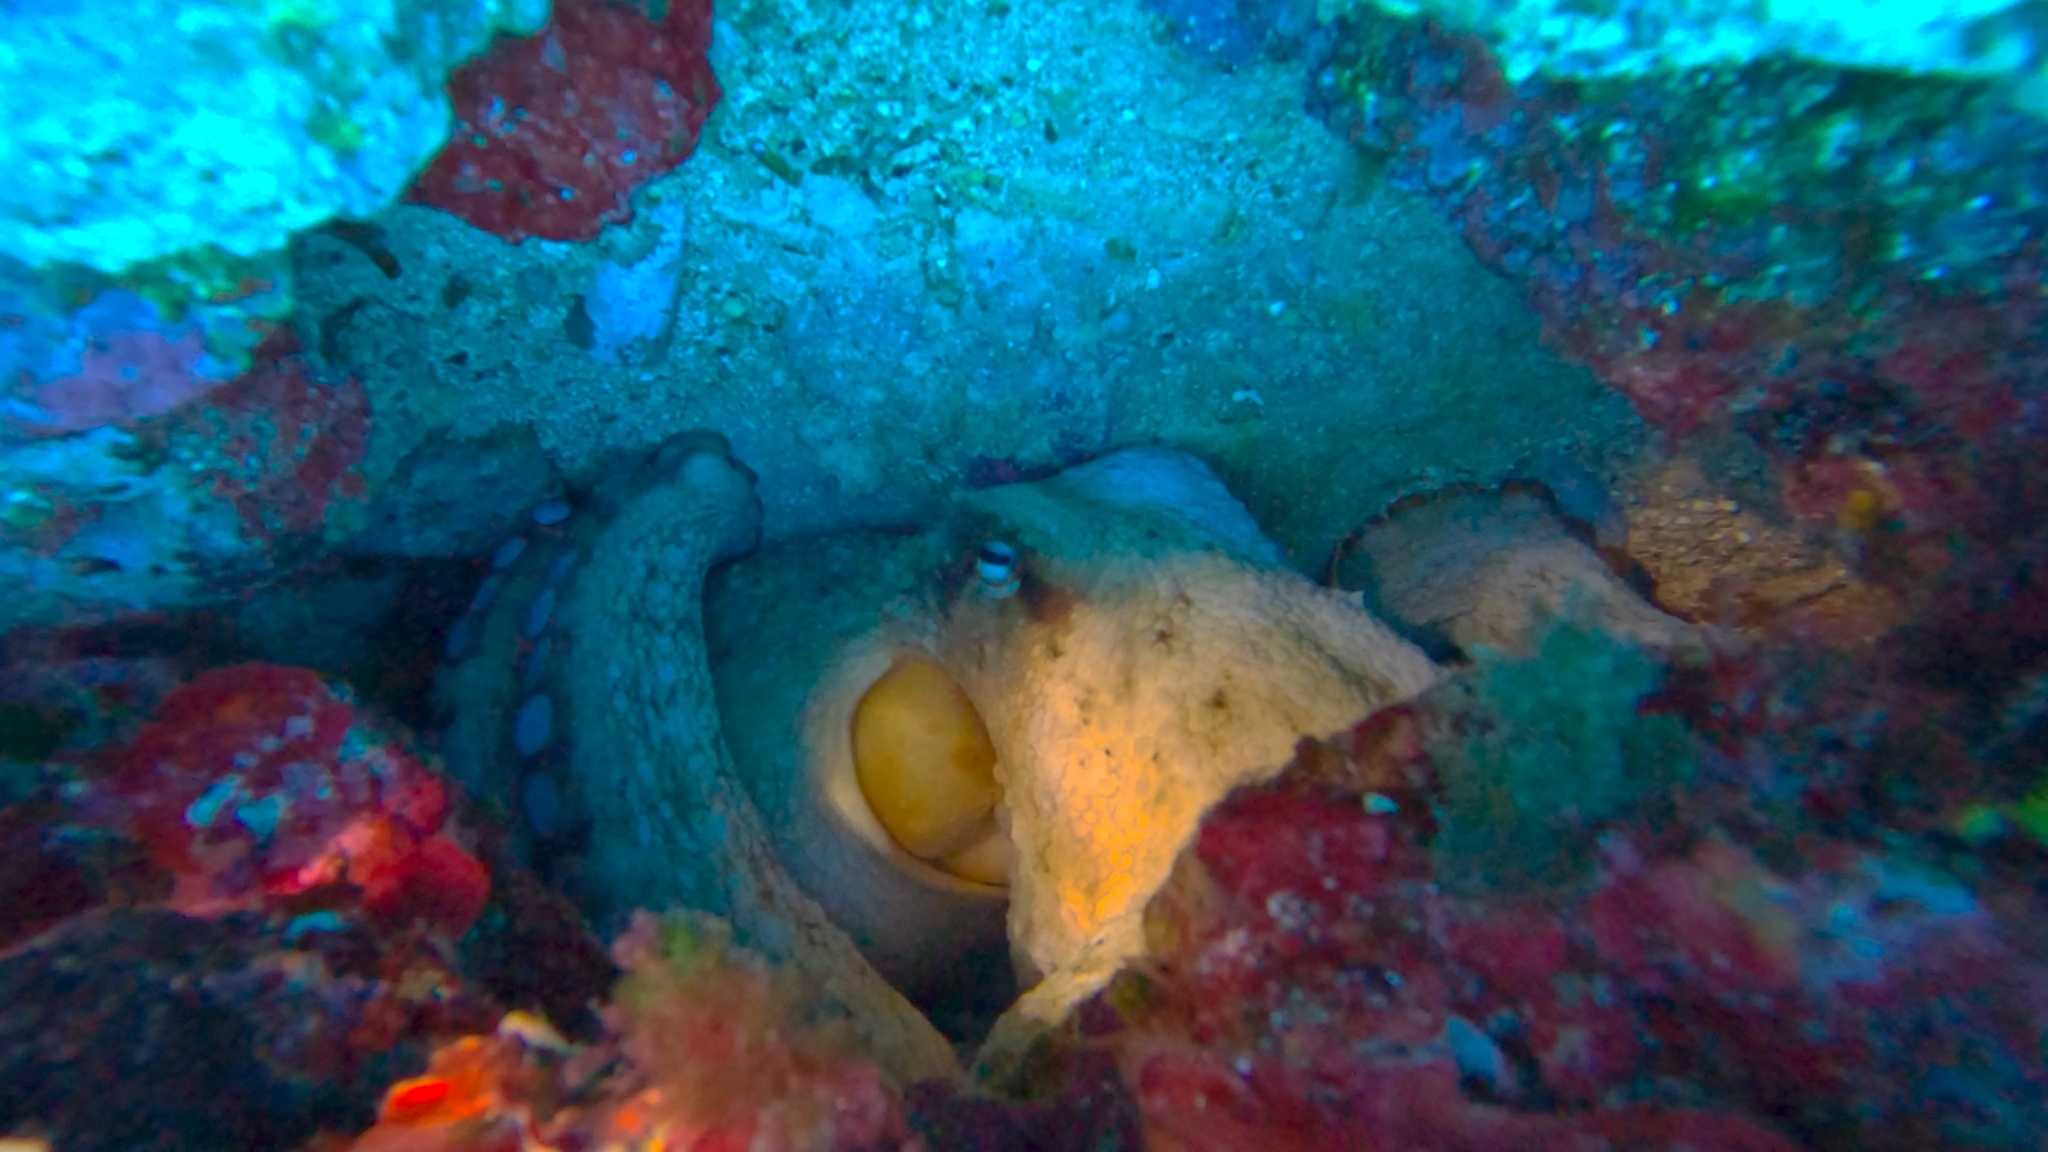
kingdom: Animalia
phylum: Mollusca
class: Cephalopoda
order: Octopoda
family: Octopodidae
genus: Octopus
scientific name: Octopus vulgaris
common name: Common octopus
